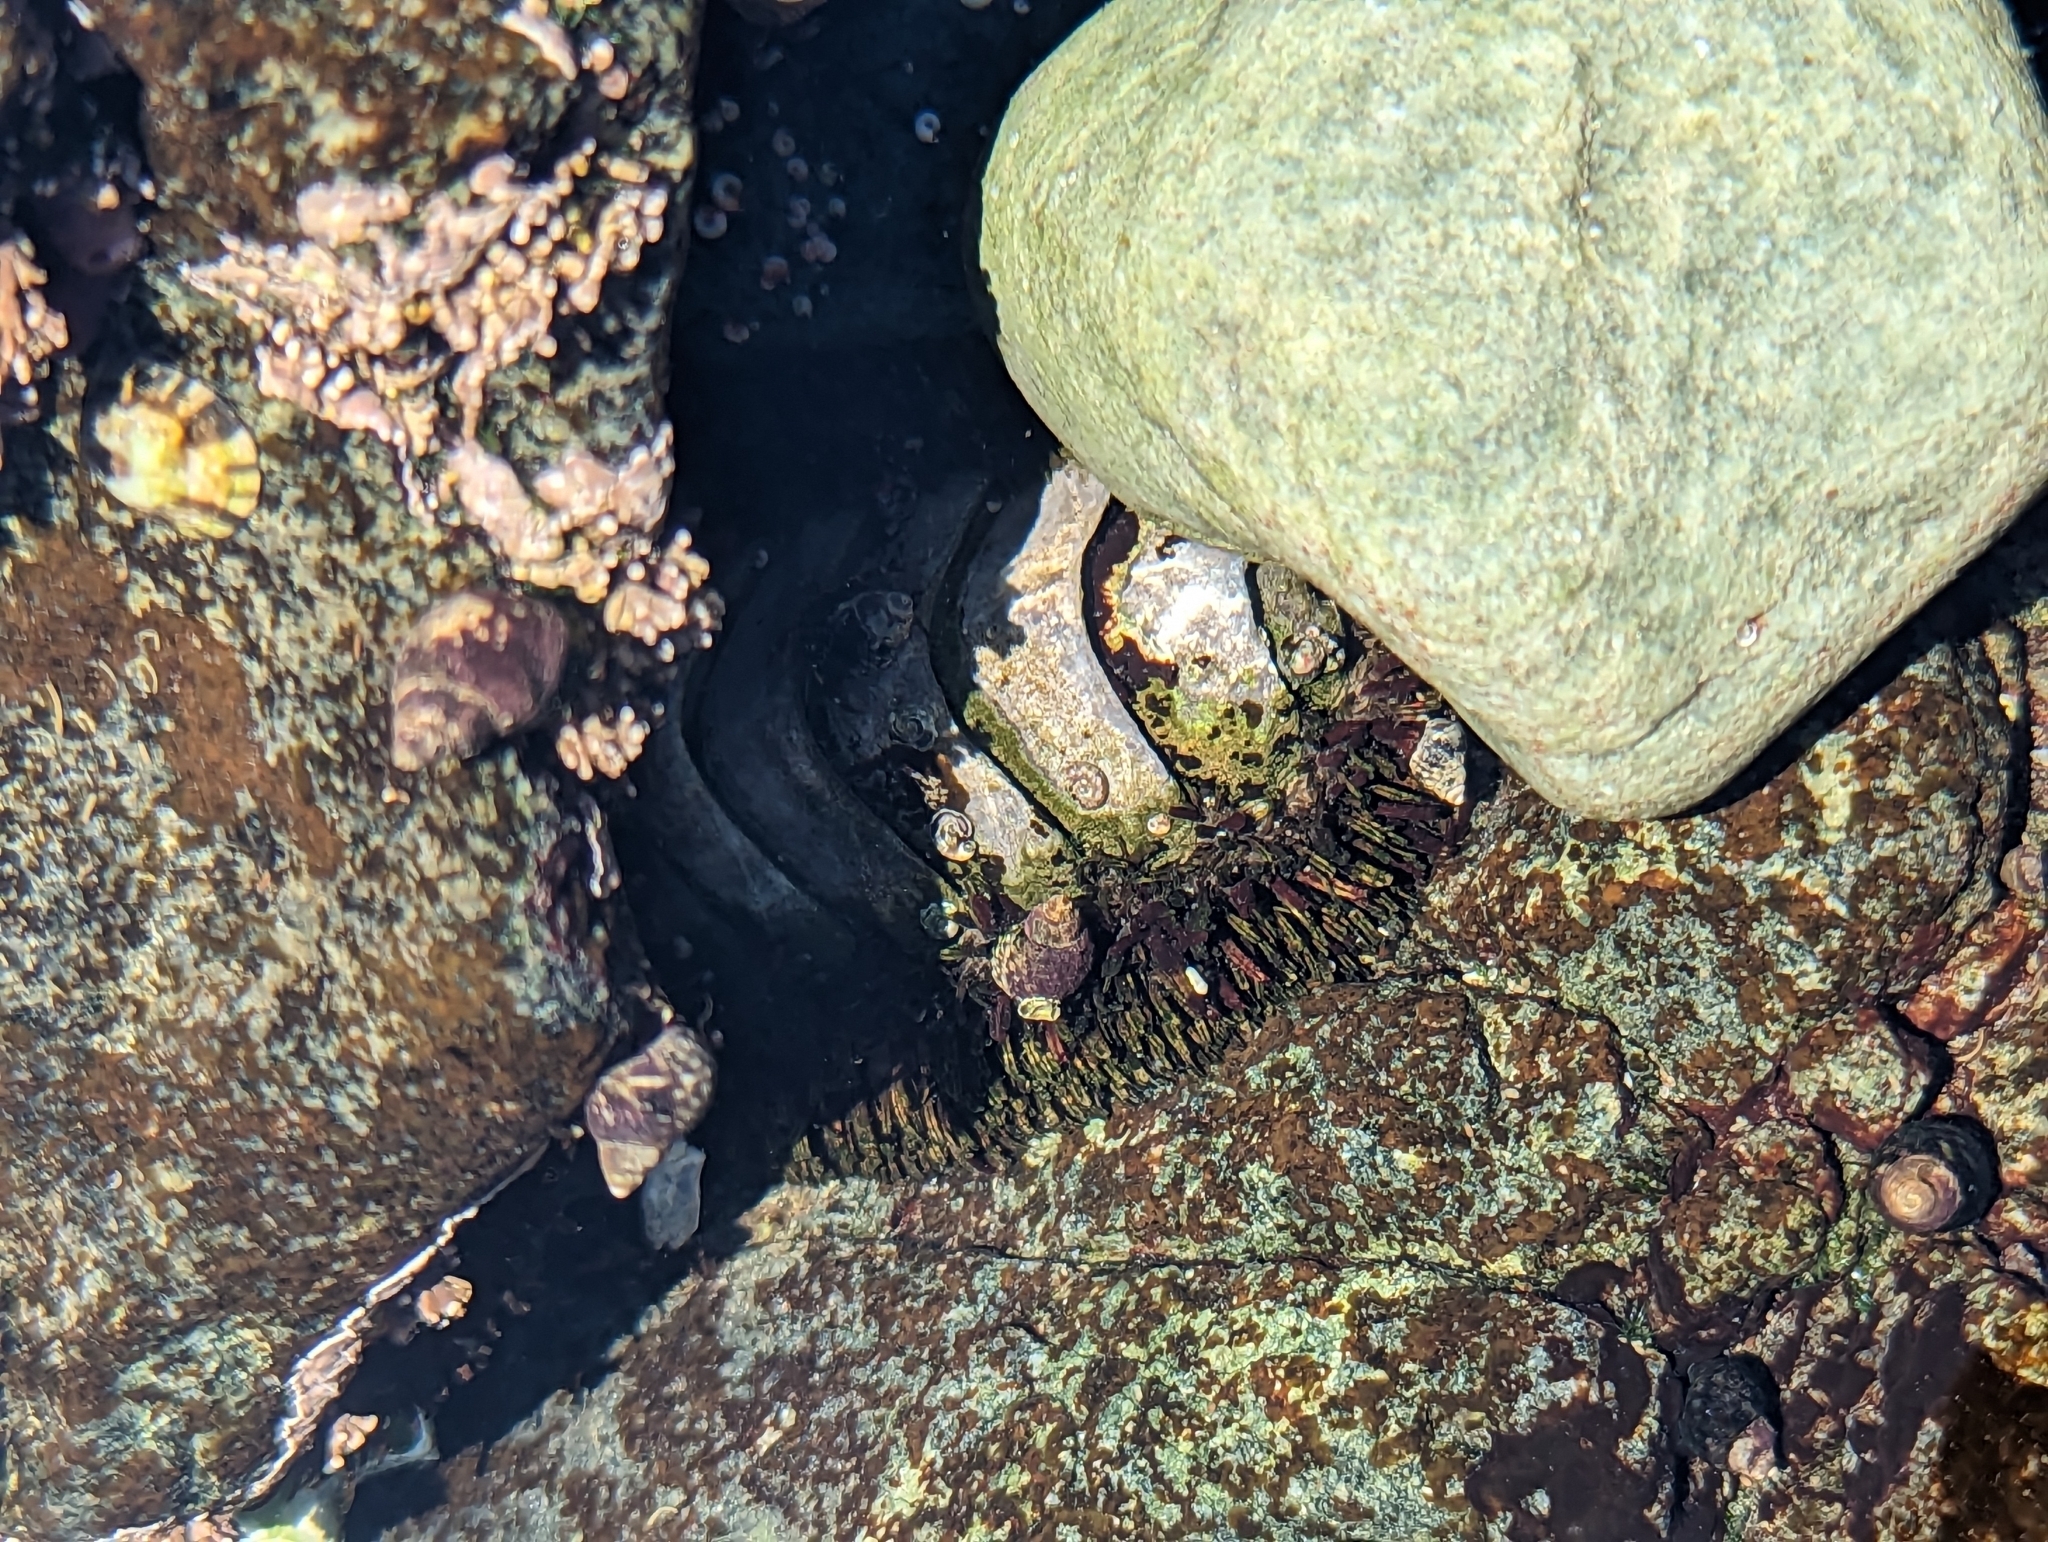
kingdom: Animalia
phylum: Mollusca
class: Polyplacophora
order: Chitonida
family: Mopaliidae
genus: Mopalia
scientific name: Mopalia muscosa
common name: Mossy chiton
